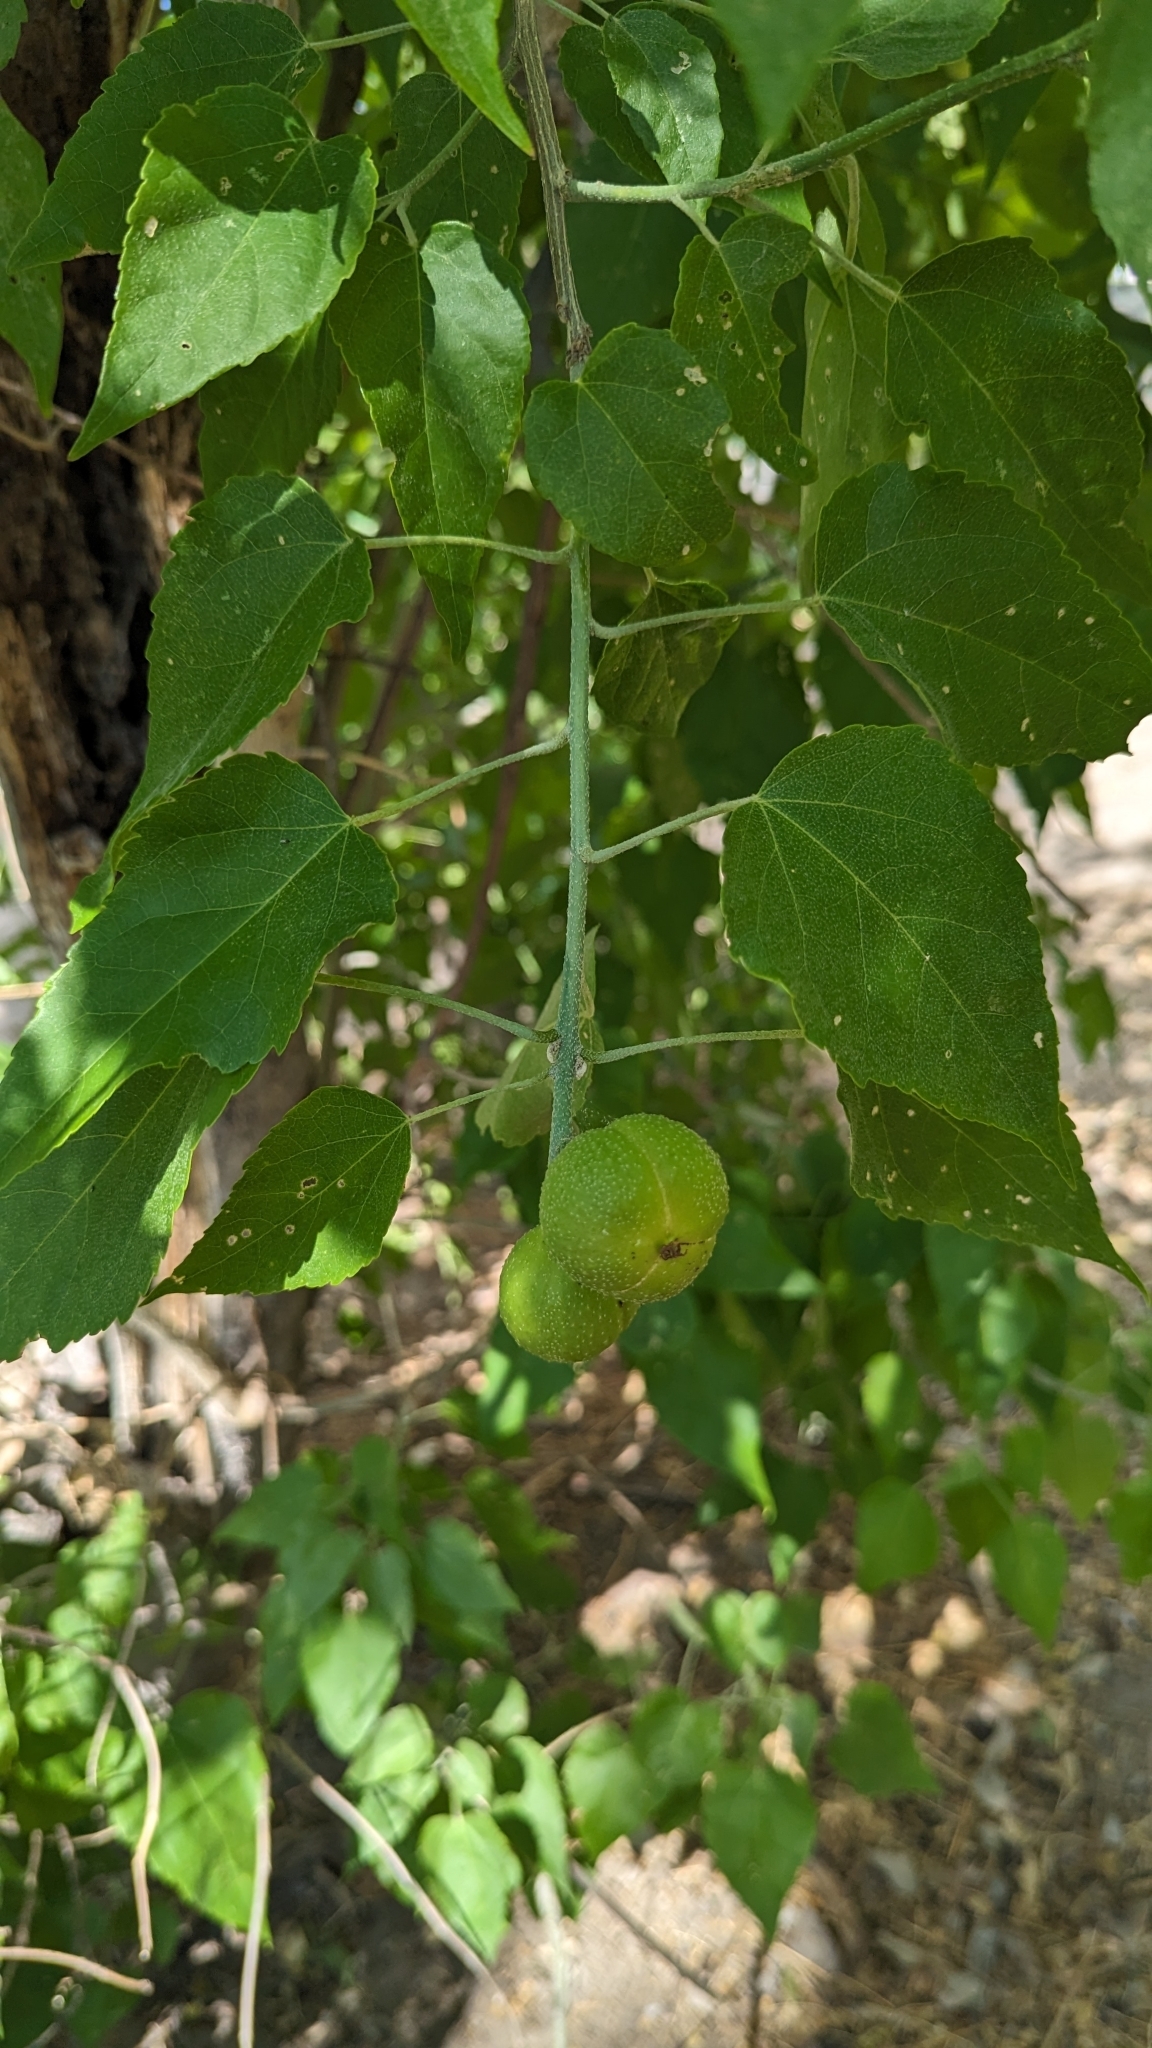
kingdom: Plantae
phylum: Tracheophyta
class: Magnoliopsida
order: Malpighiales
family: Euphorbiaceae
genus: Croton
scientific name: Croton megalobotrys
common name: Large fever berry
